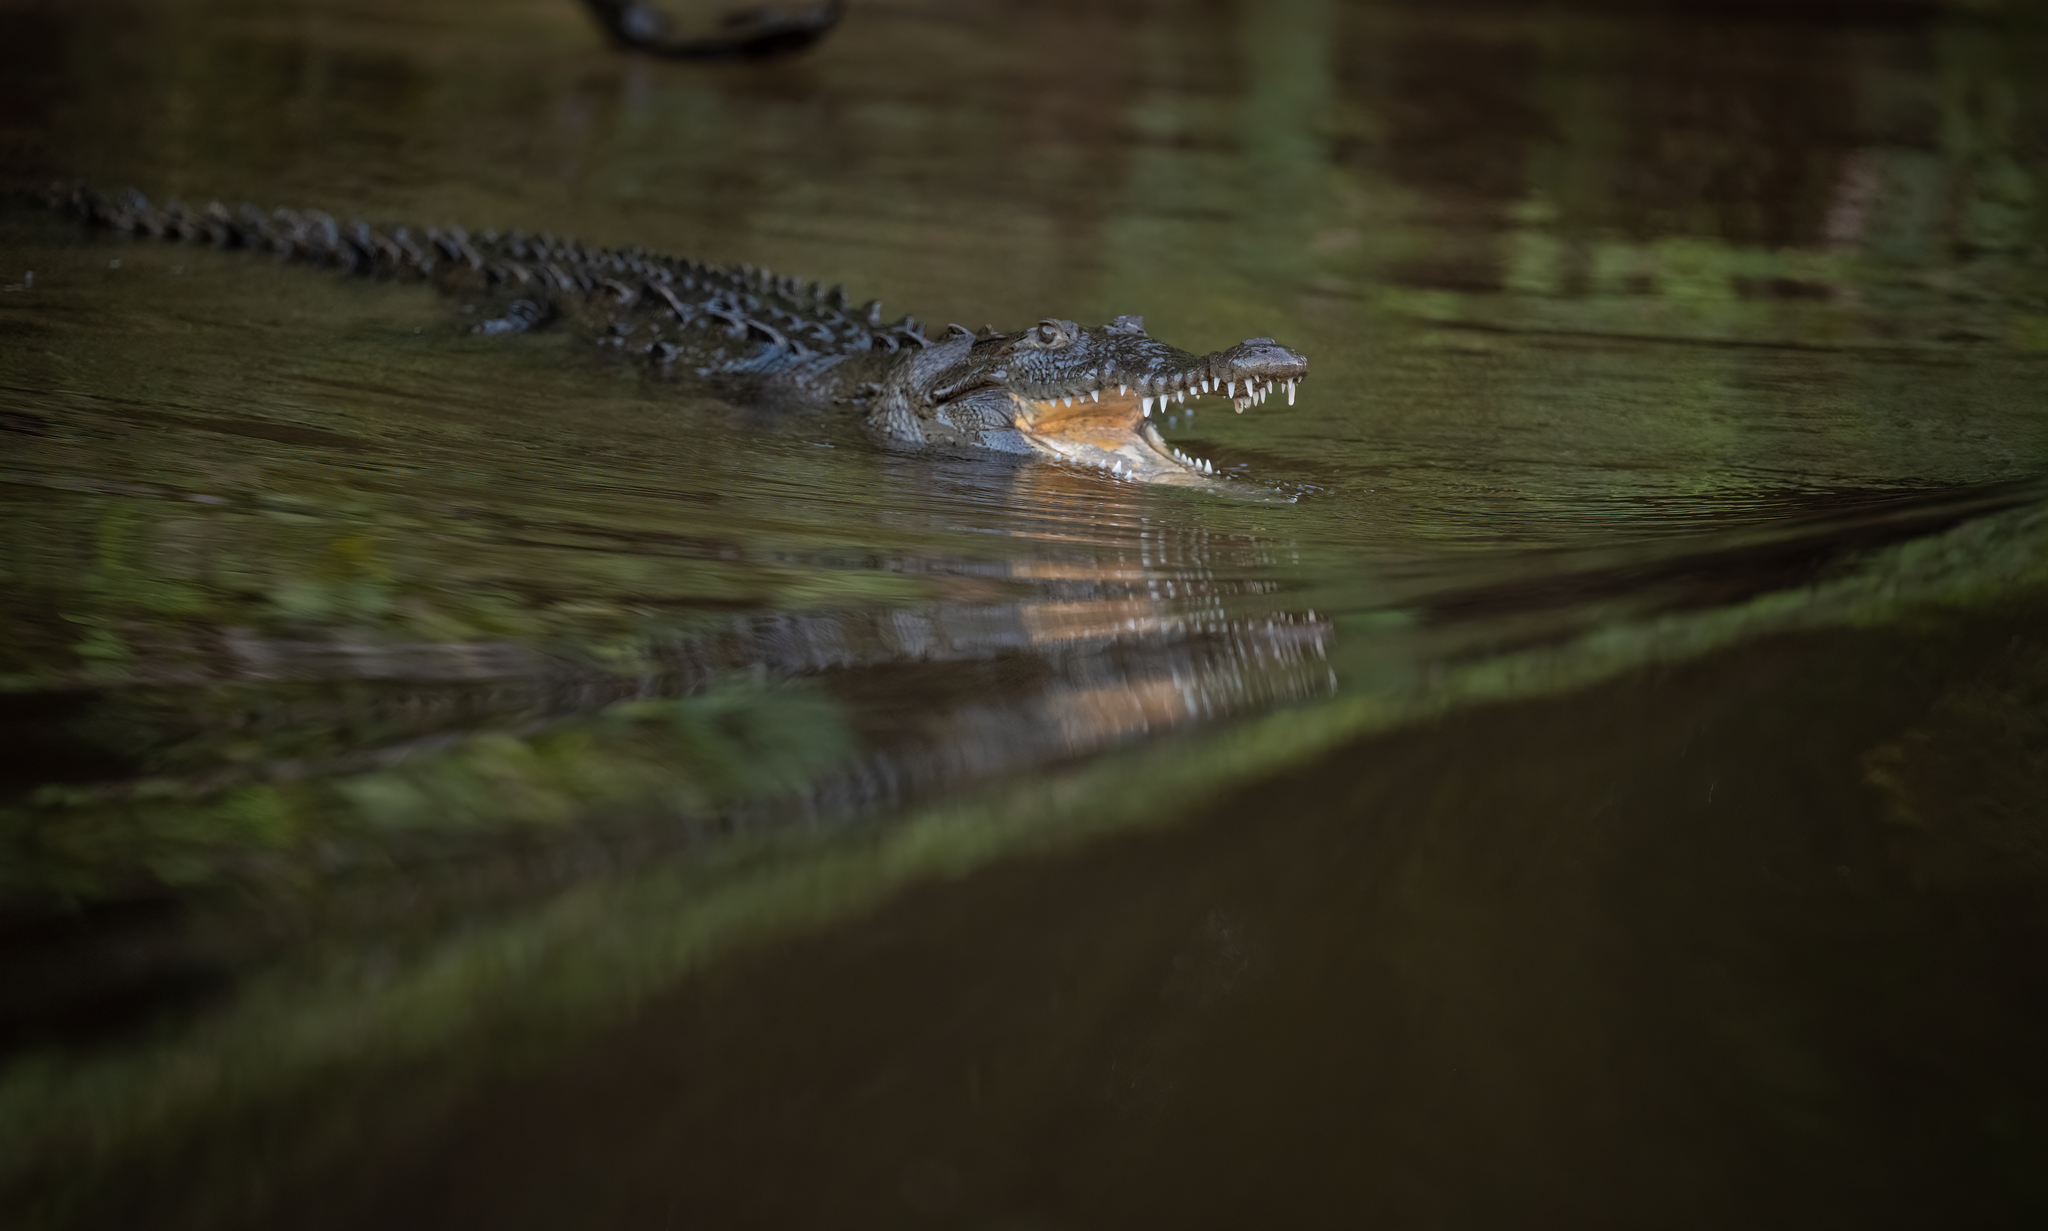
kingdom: Animalia
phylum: Chordata
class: Crocodylia
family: Crocodylidae
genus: Crocodylus
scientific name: Crocodylus acutus
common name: American crocodile
